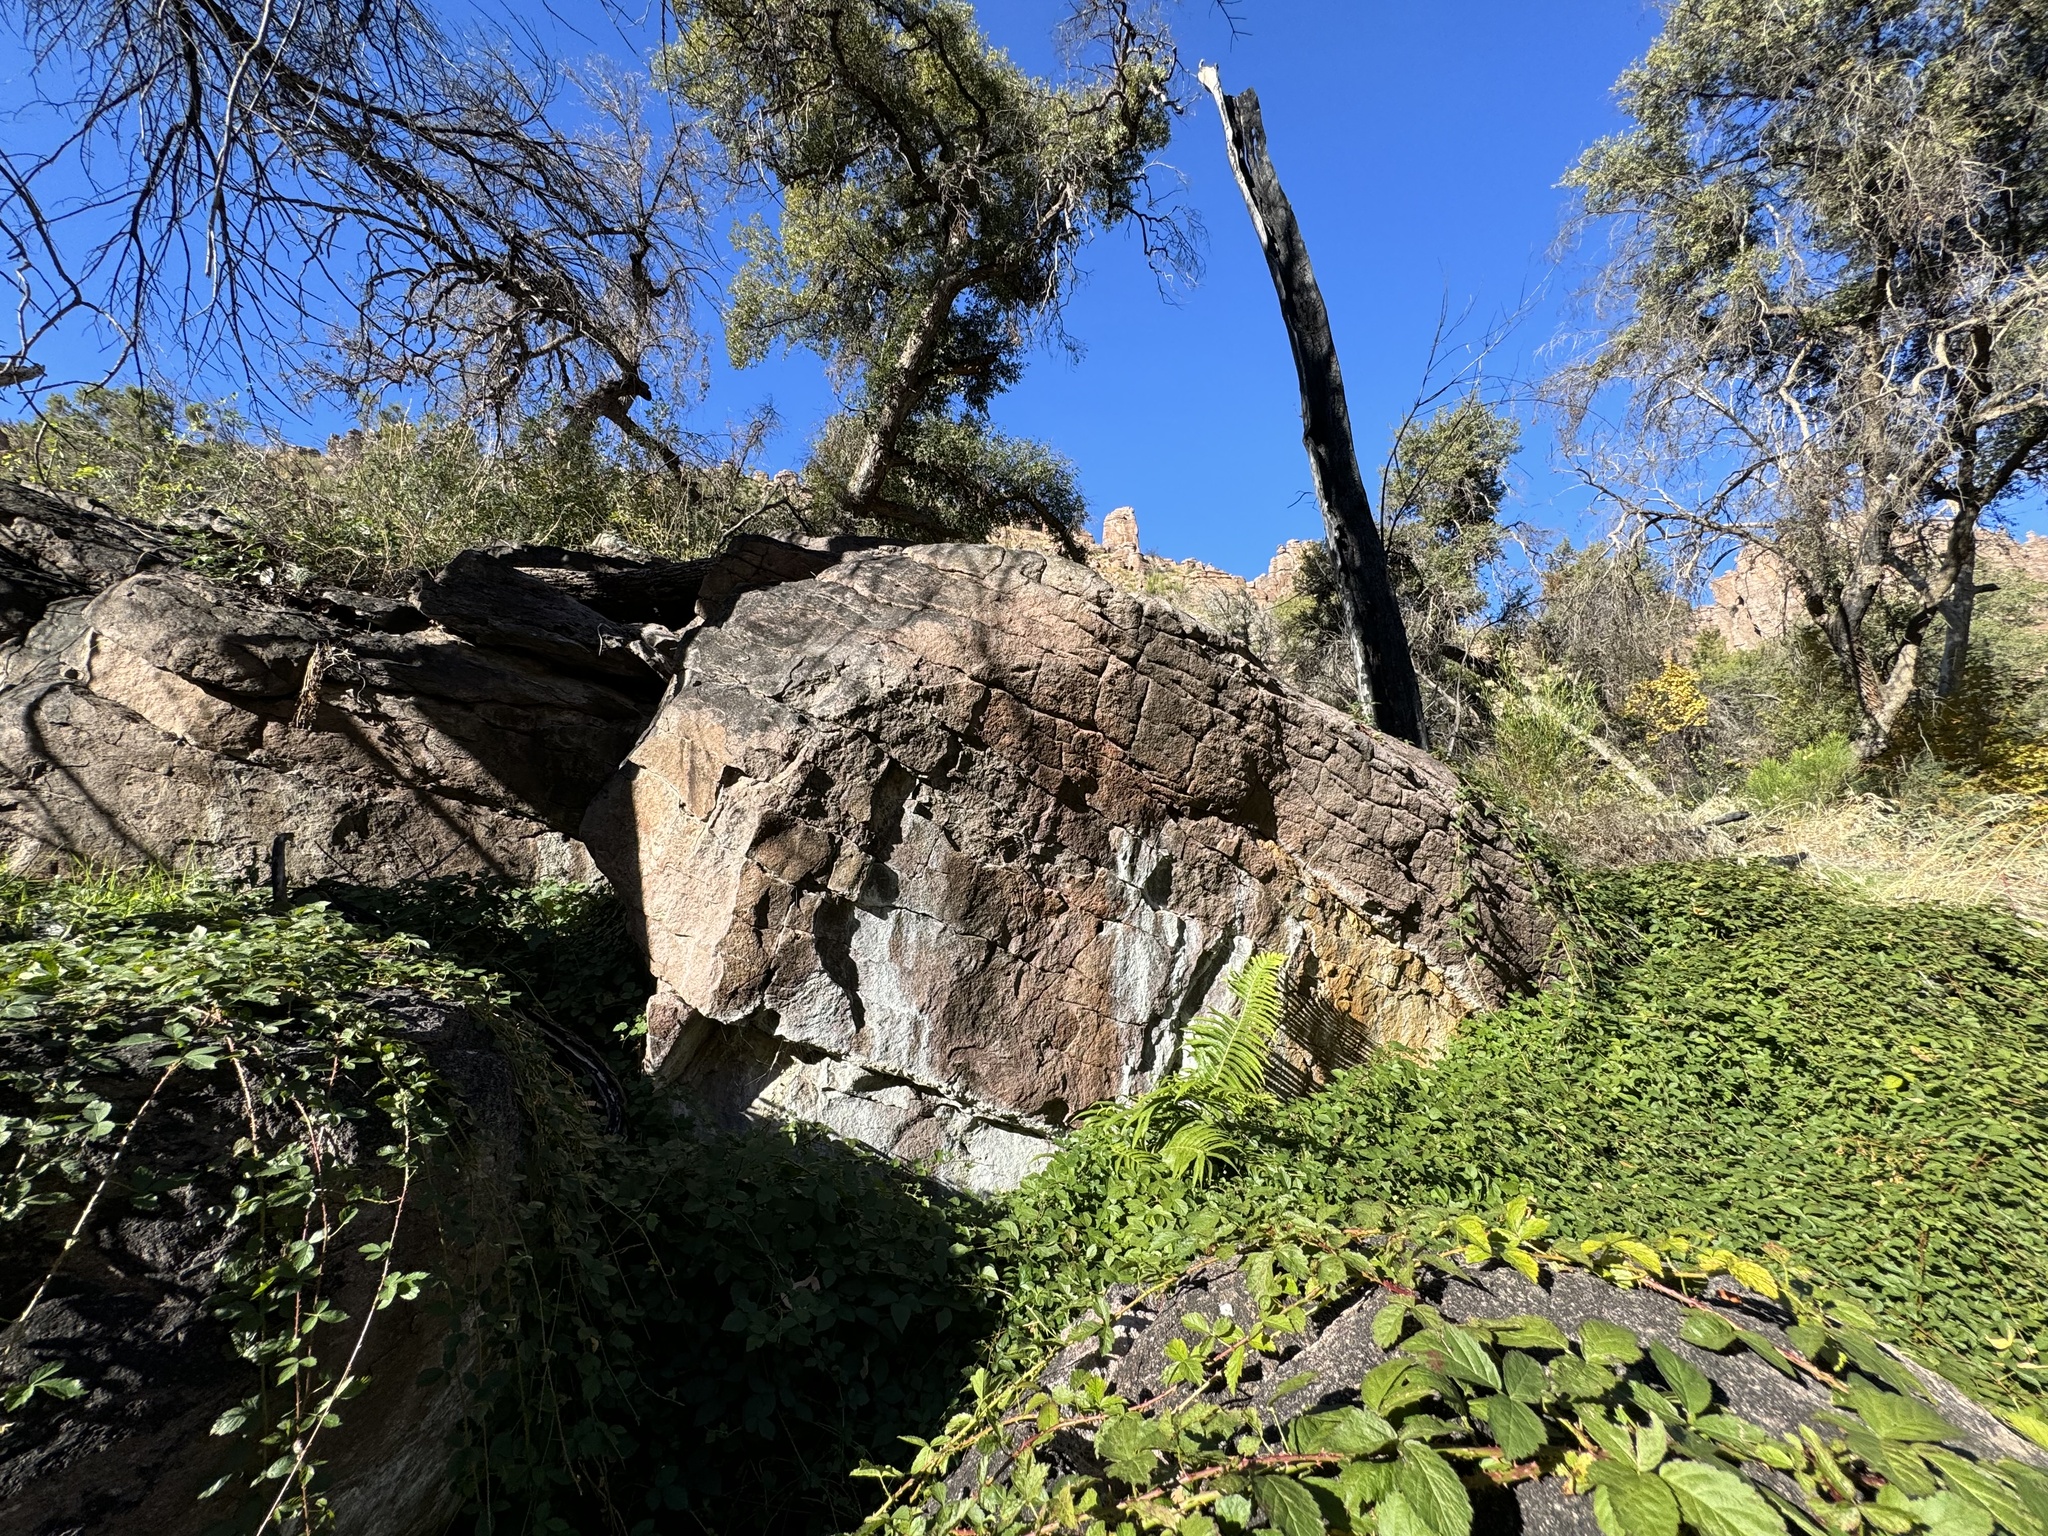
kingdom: Plantae
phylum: Tracheophyta
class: Polypodiopsida
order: Polypodiales
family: Thelypteridaceae
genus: Pelazoneuron
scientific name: Pelazoneuron puberulum
